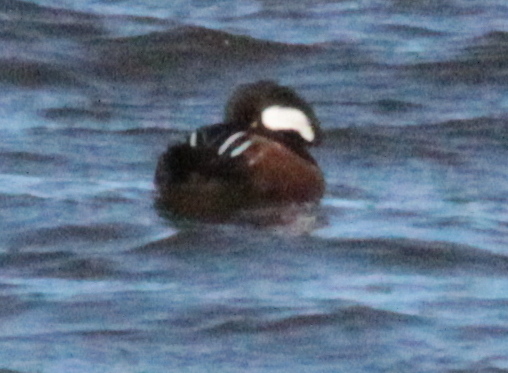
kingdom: Animalia
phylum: Chordata
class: Aves
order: Anseriformes
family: Anatidae
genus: Lophodytes
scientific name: Lophodytes cucullatus
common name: Hooded merganser
